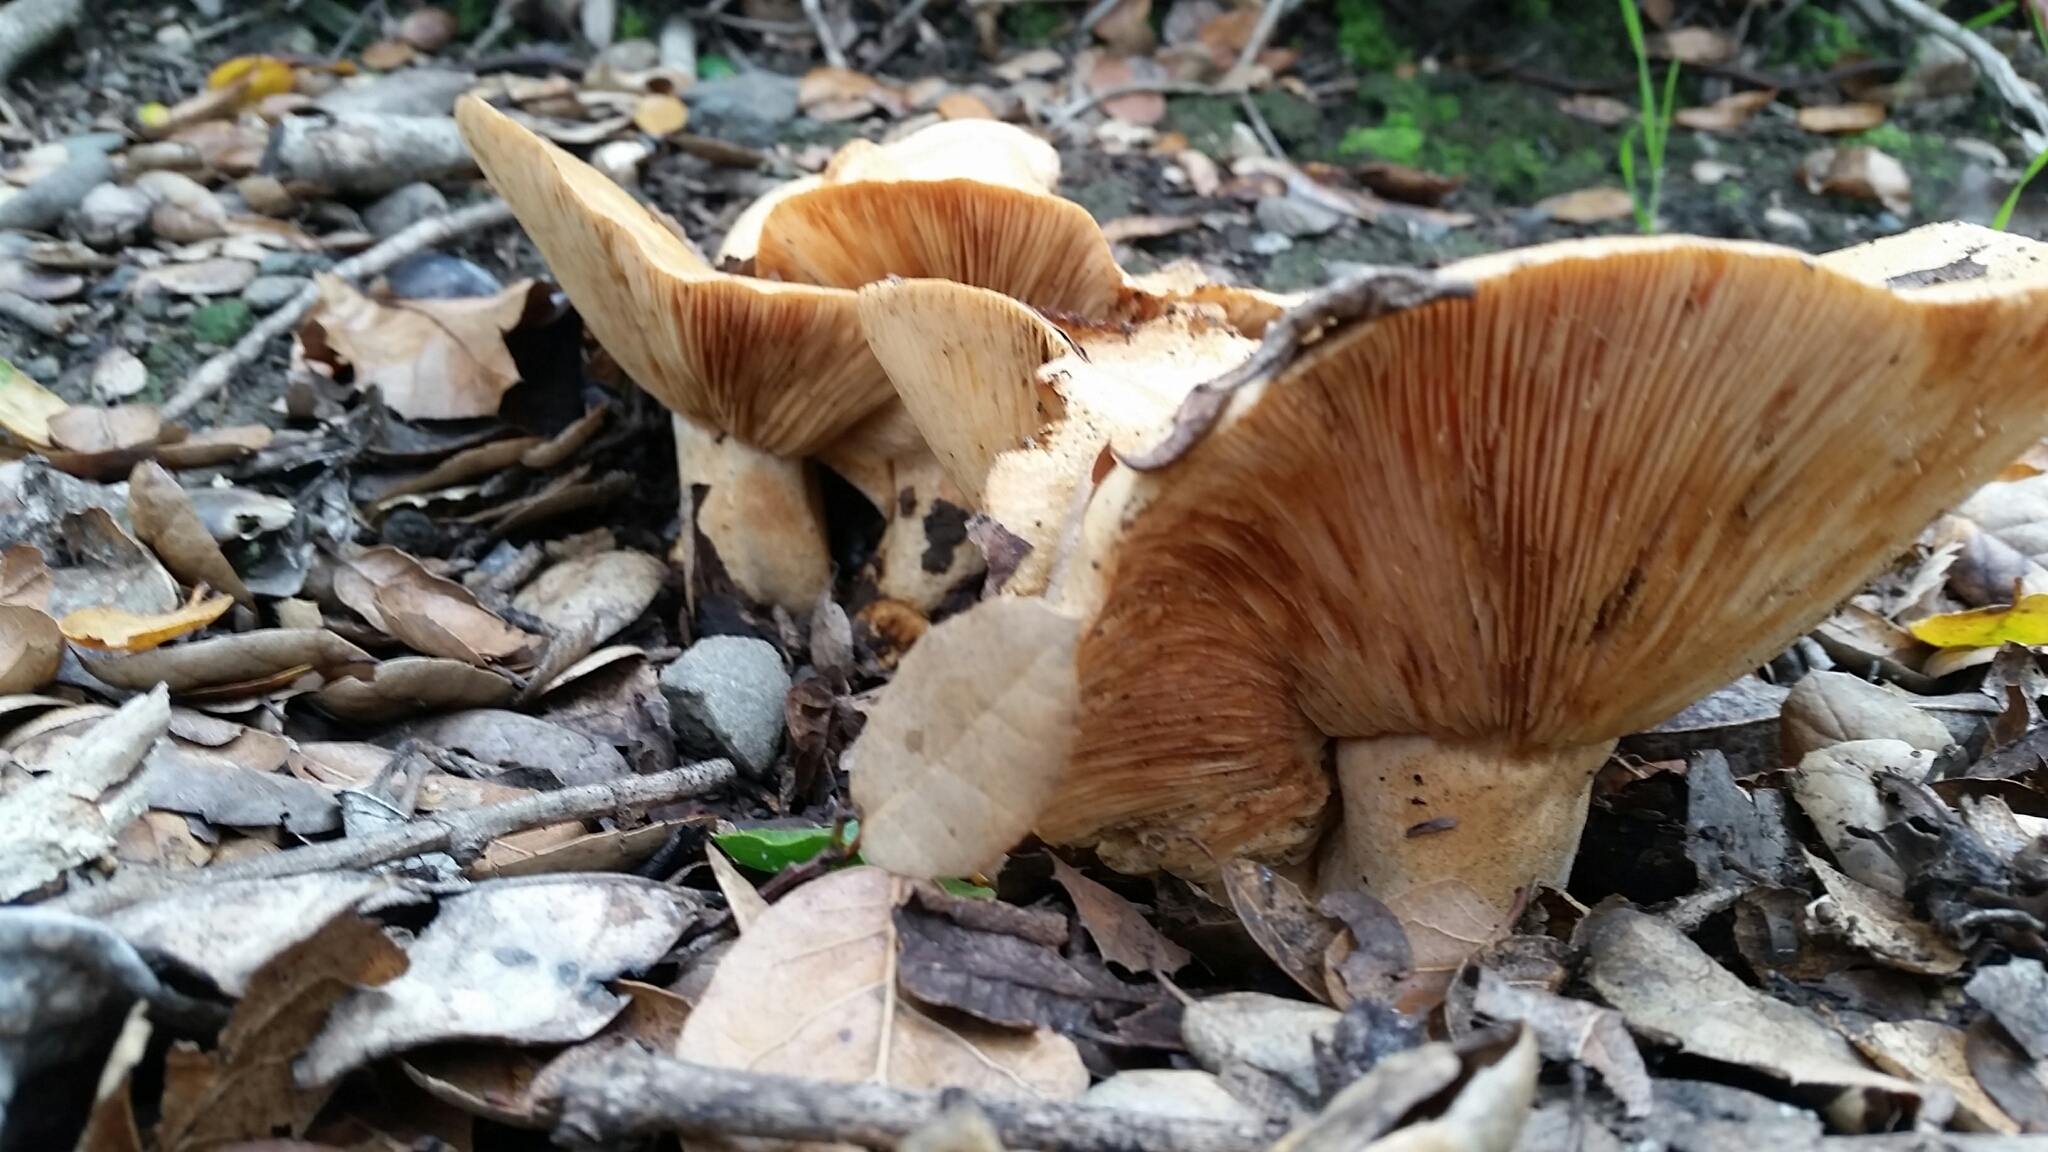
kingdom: Fungi
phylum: Basidiomycota
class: Agaricomycetes
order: Russulales
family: Russulaceae
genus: Lactarius
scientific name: Lactarius alnicola
